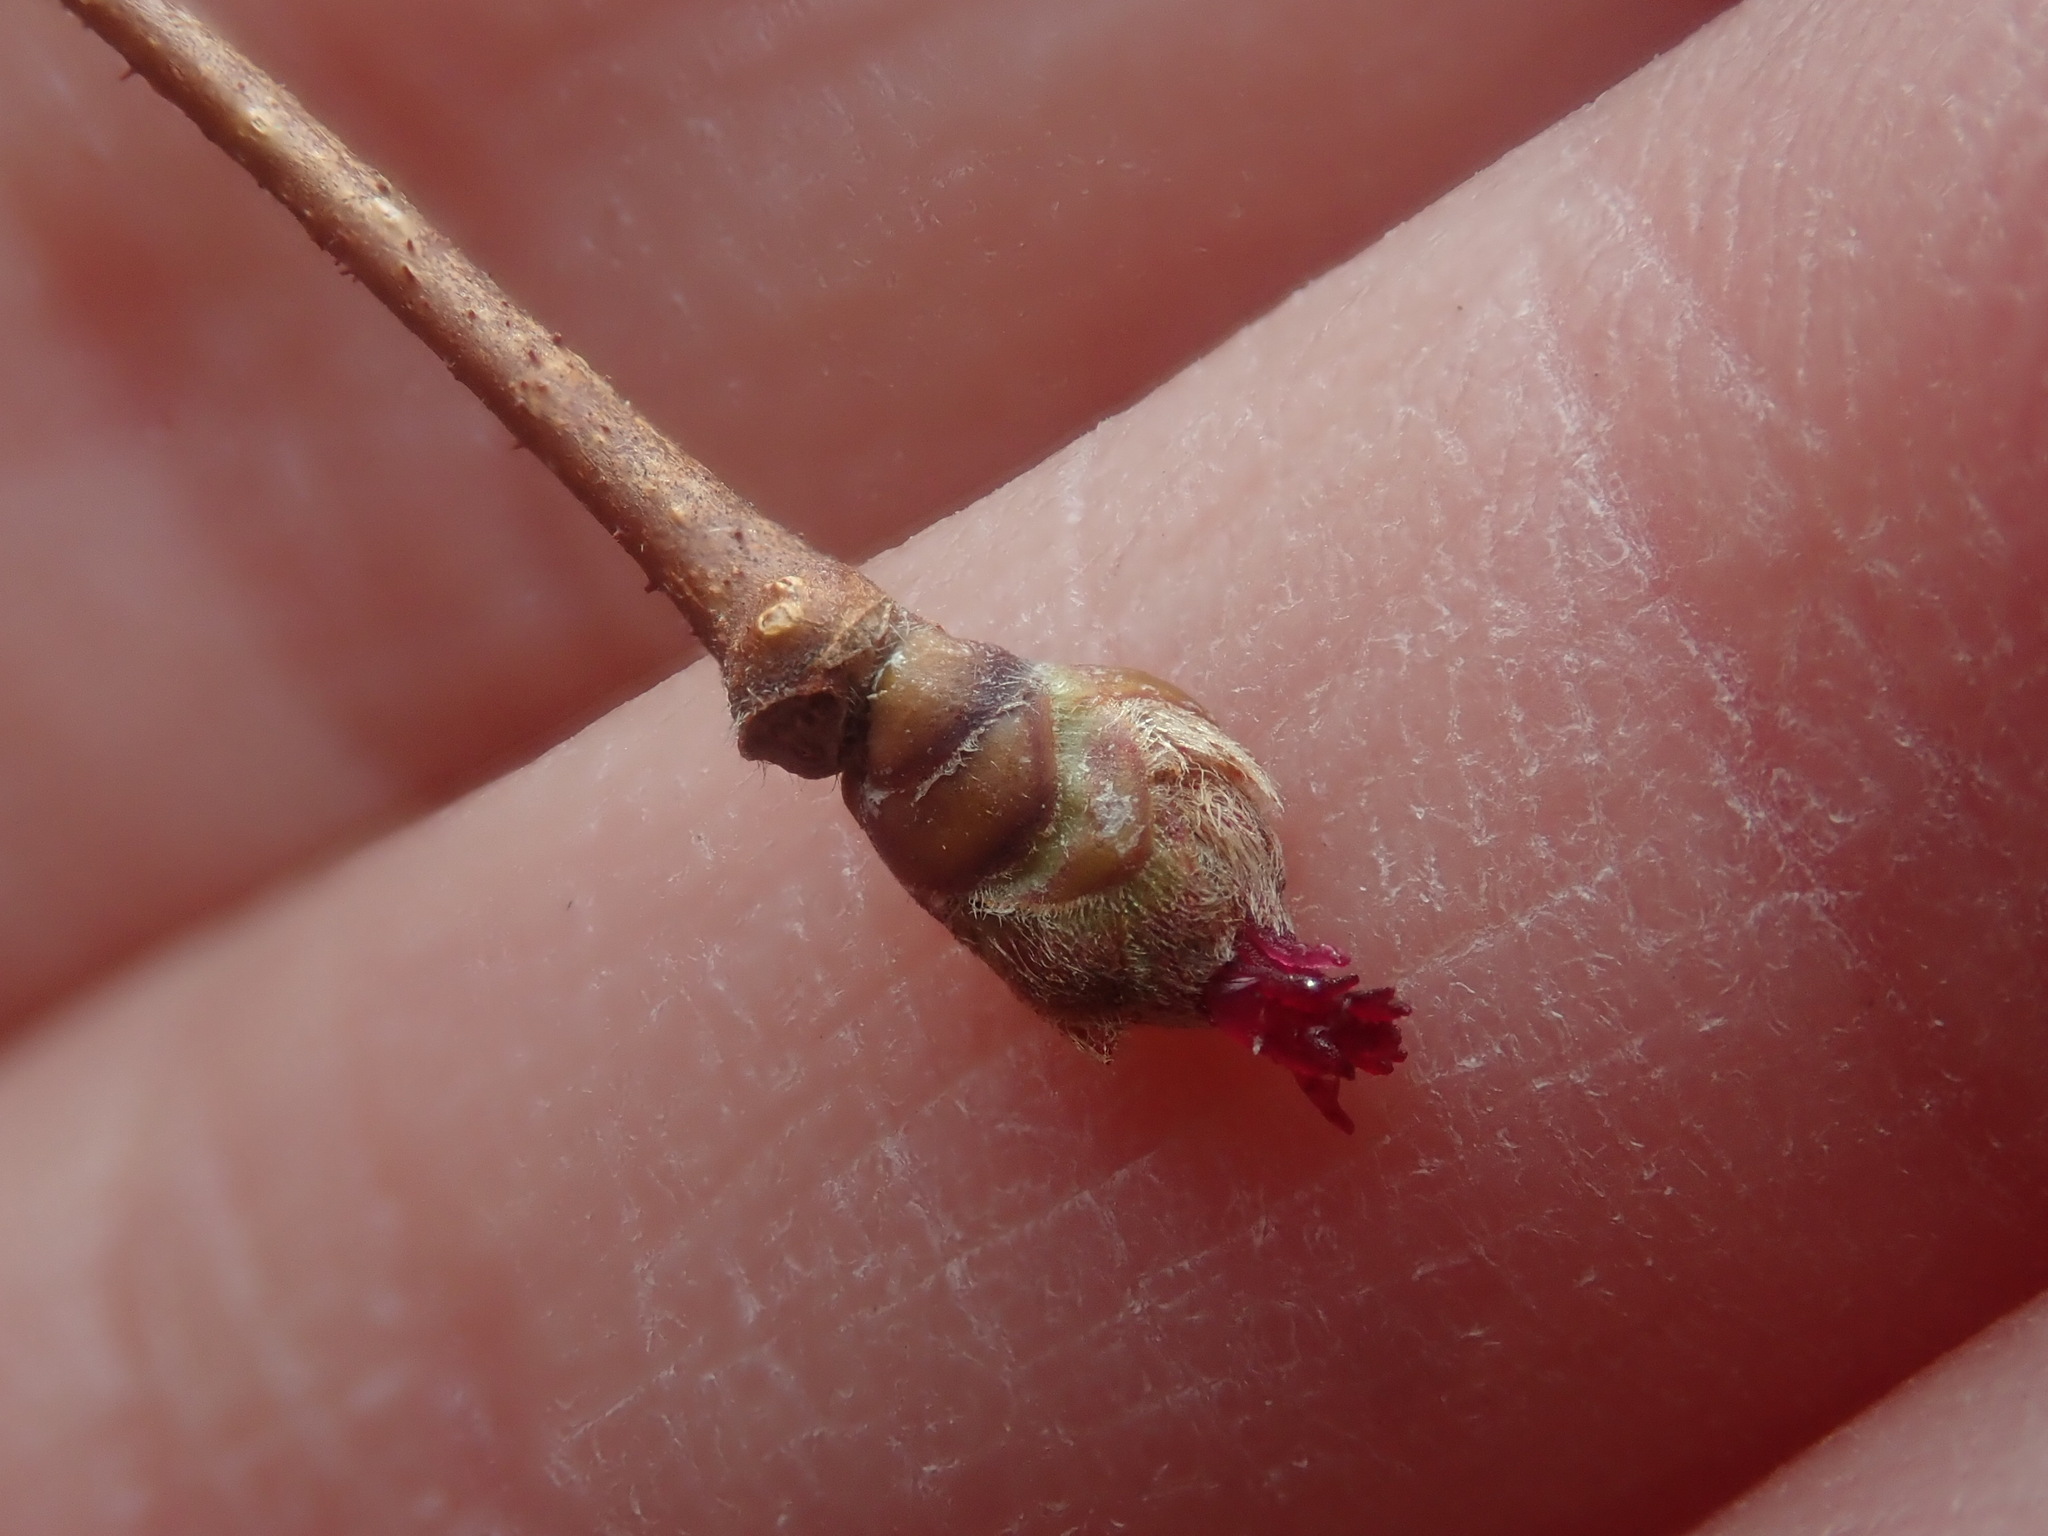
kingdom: Plantae
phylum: Tracheophyta
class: Magnoliopsida
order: Fagales
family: Betulaceae
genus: Corylus
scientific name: Corylus americana
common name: American hazel
